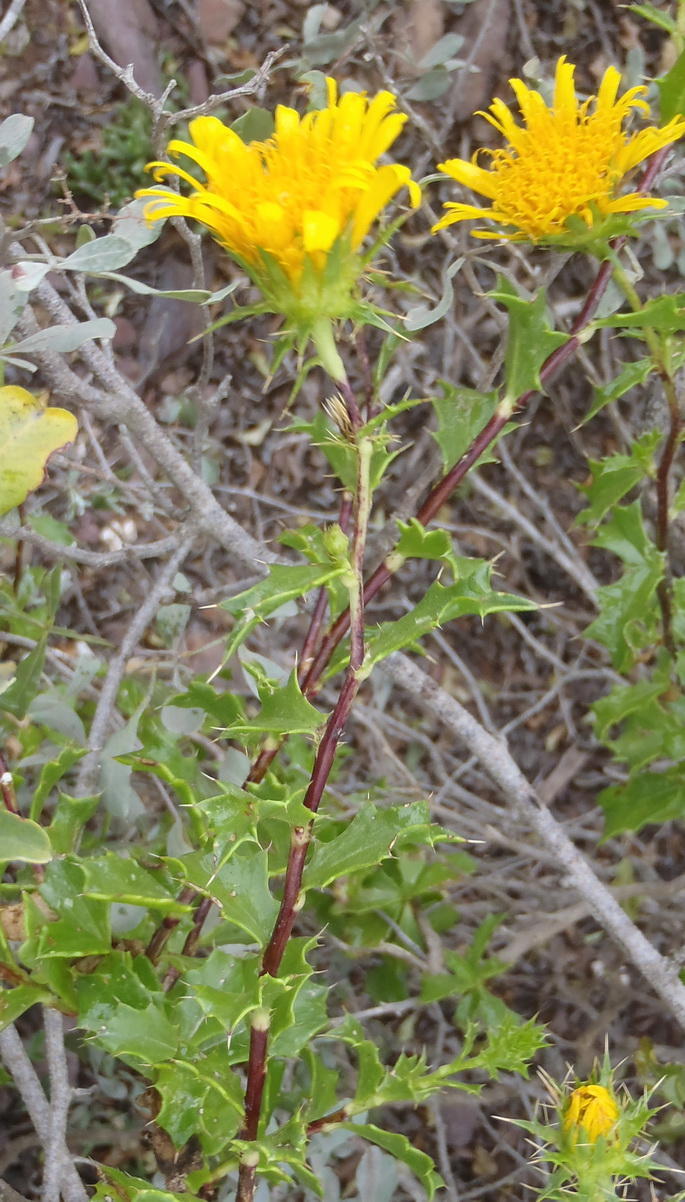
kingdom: Plantae
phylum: Tracheophyta
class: Magnoliopsida
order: Asterales
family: Asteraceae
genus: Berkheya
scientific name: Berkheya spinosa
